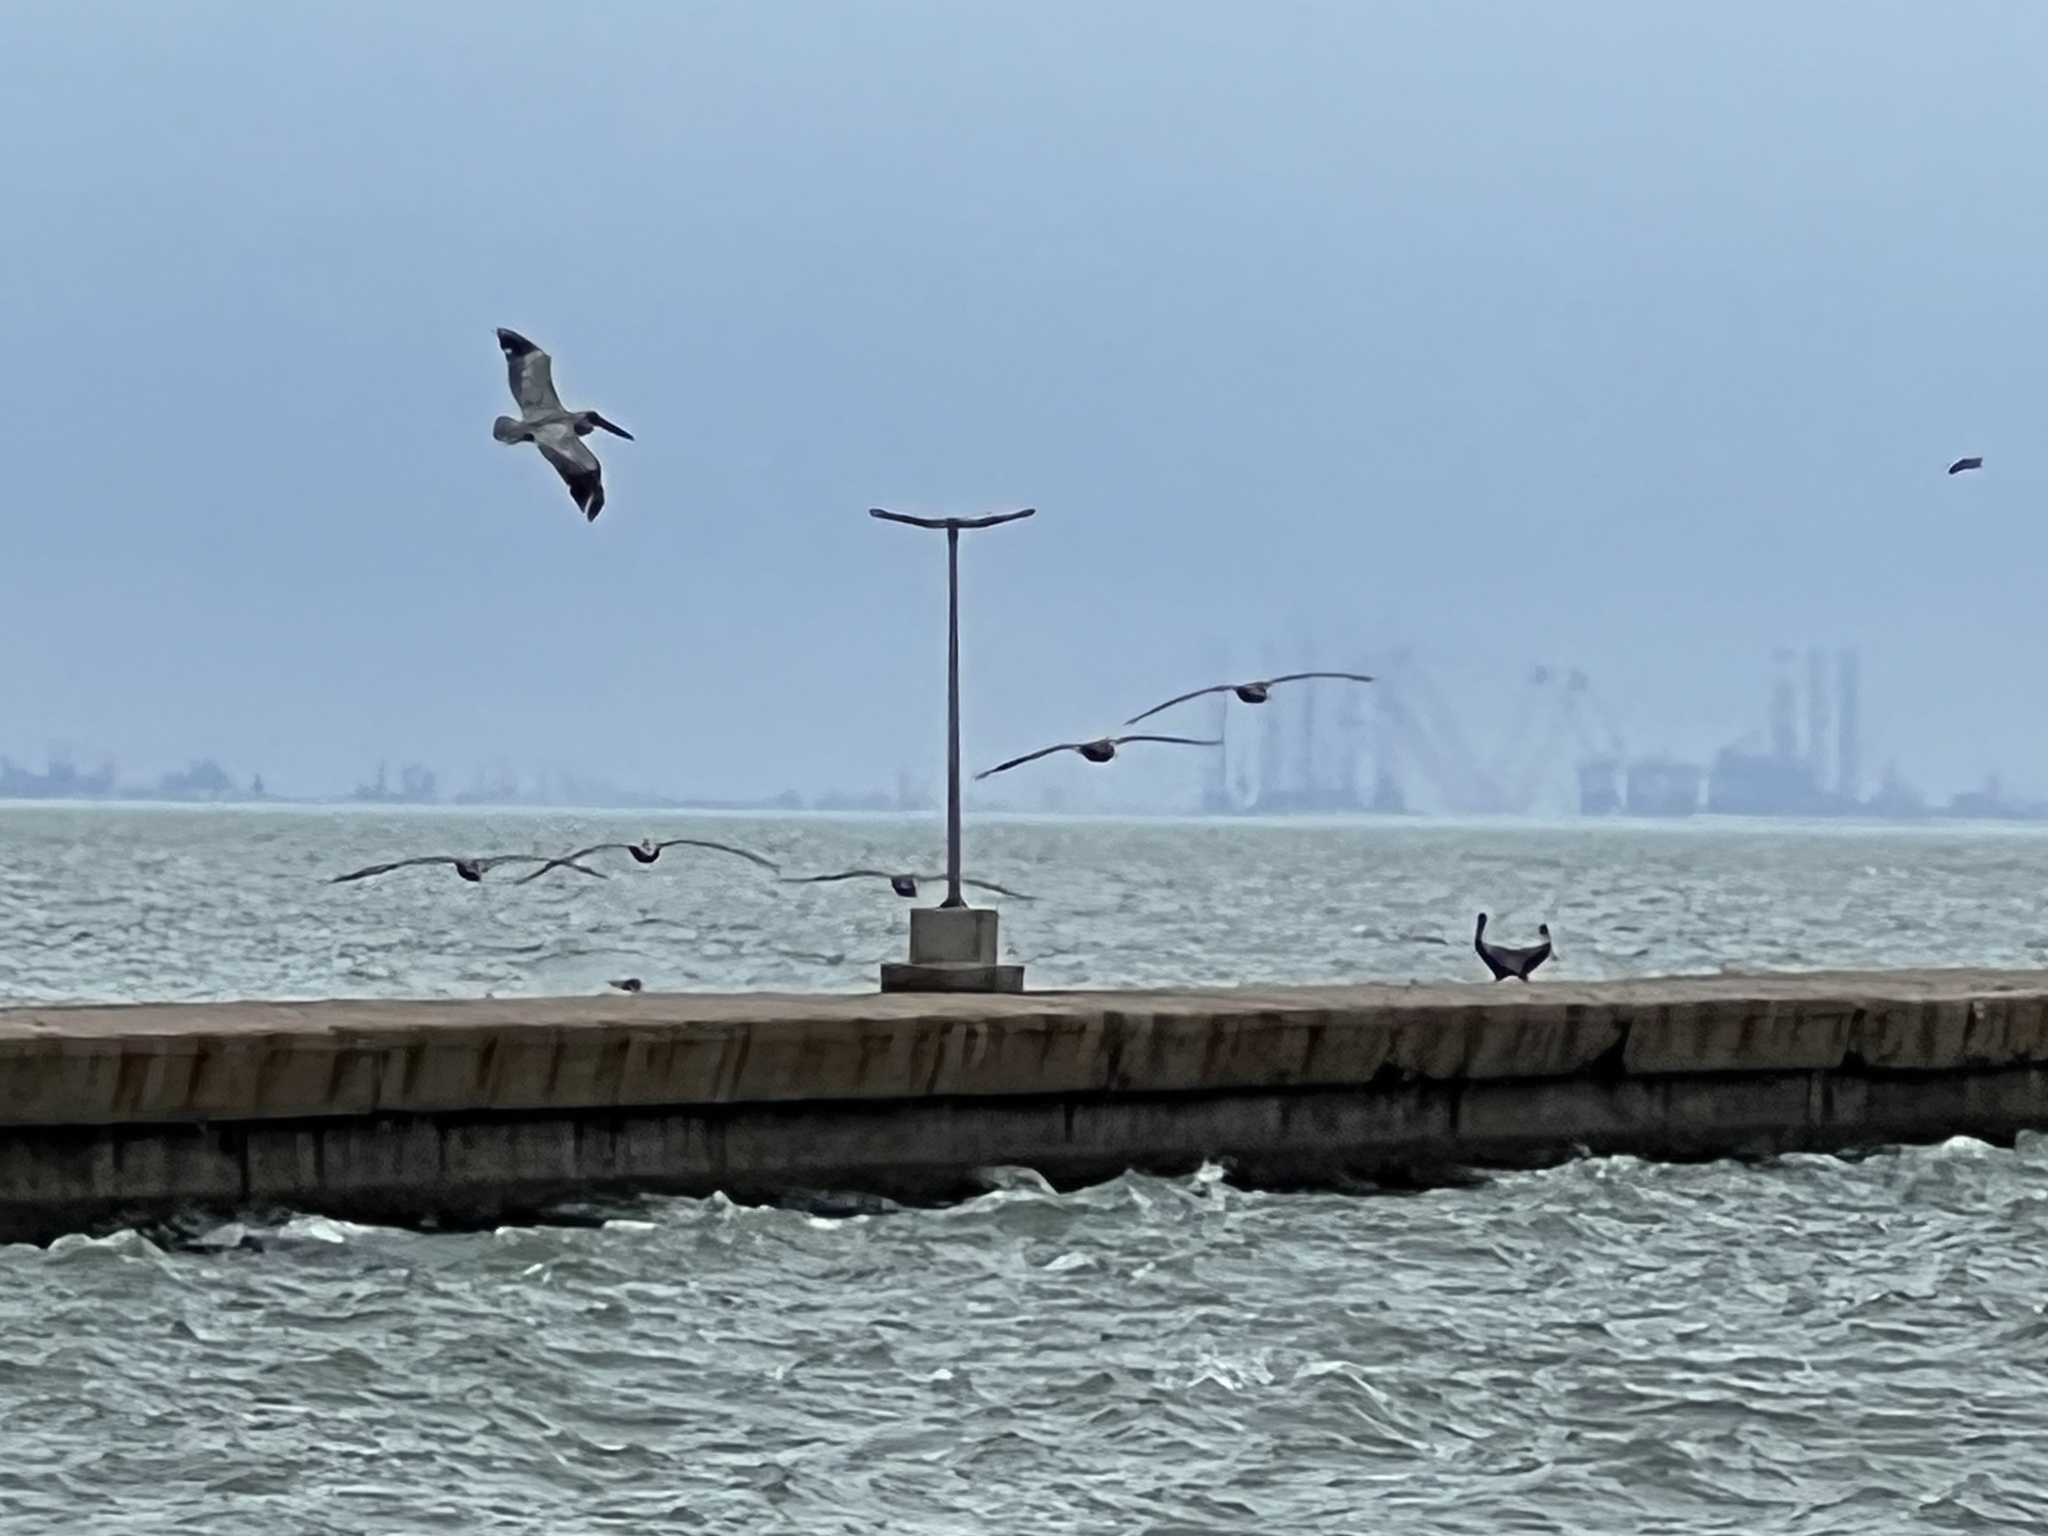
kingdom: Animalia
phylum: Chordata
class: Aves
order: Pelecaniformes
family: Pelecanidae
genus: Pelecanus
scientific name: Pelecanus occidentalis
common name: Brown pelican
